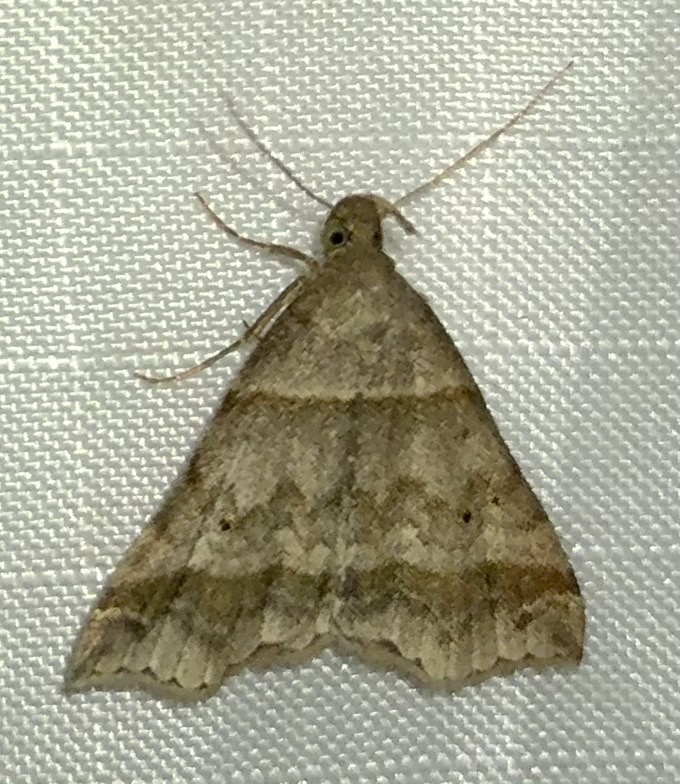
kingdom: Animalia
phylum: Arthropoda
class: Insecta
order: Lepidoptera
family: Erebidae
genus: Phaeolita
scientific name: Phaeolita pyramusalis
